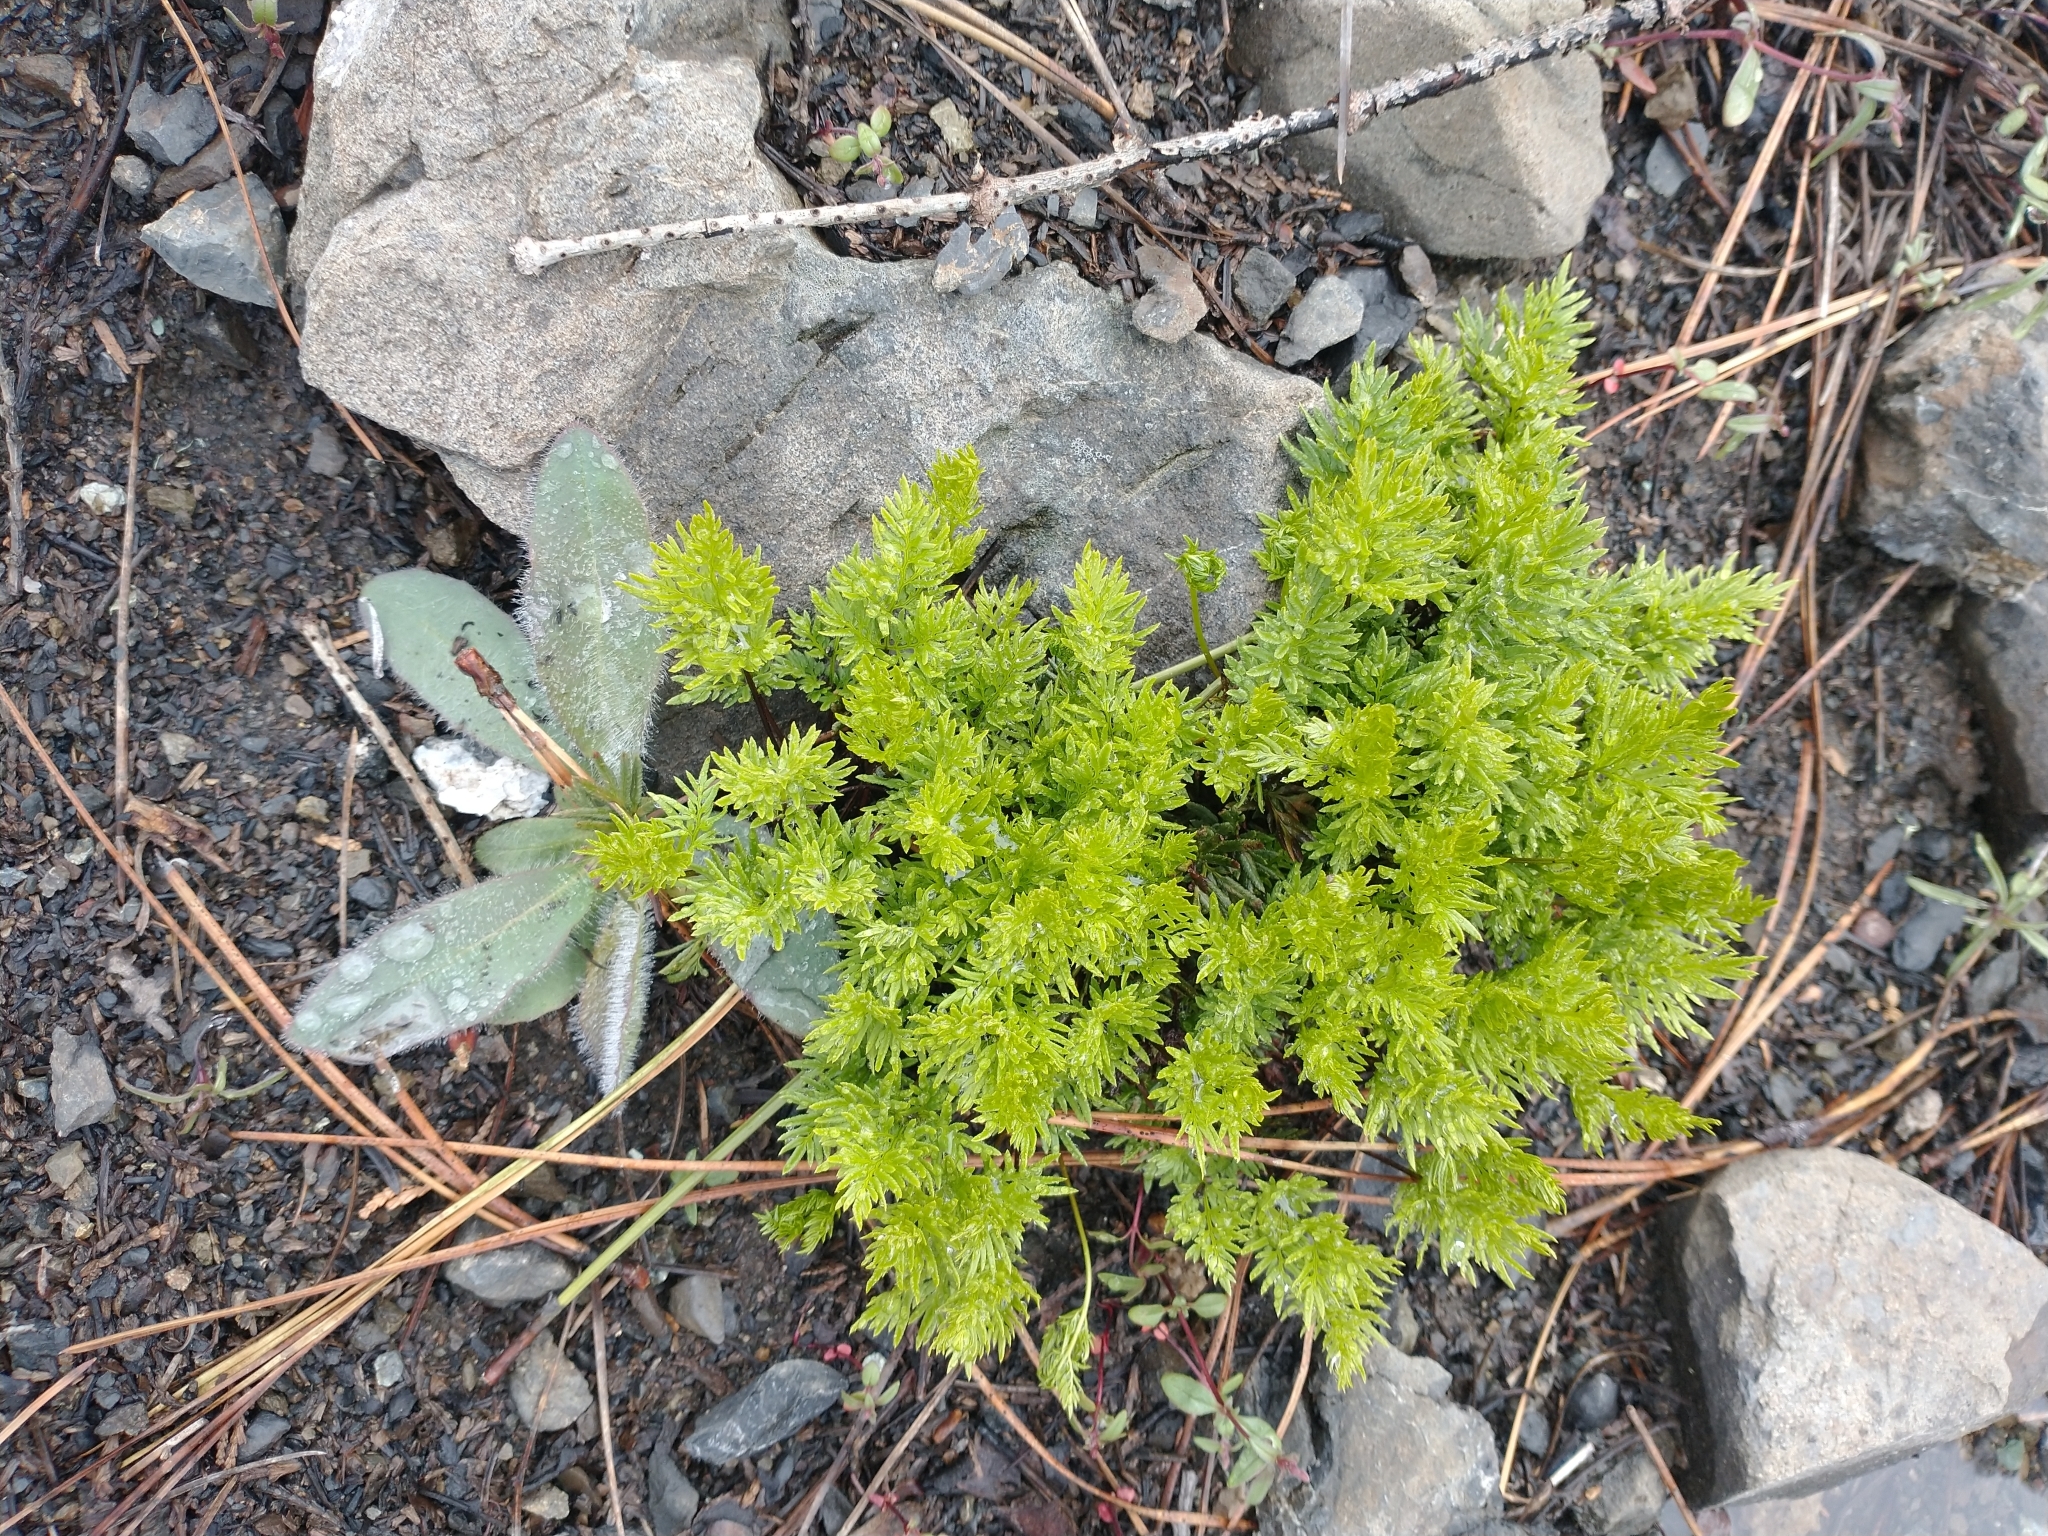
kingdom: Plantae
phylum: Tracheophyta
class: Polypodiopsida
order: Polypodiales
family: Pteridaceae
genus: Aspidotis
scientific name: Aspidotis densa
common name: Indian's dream
